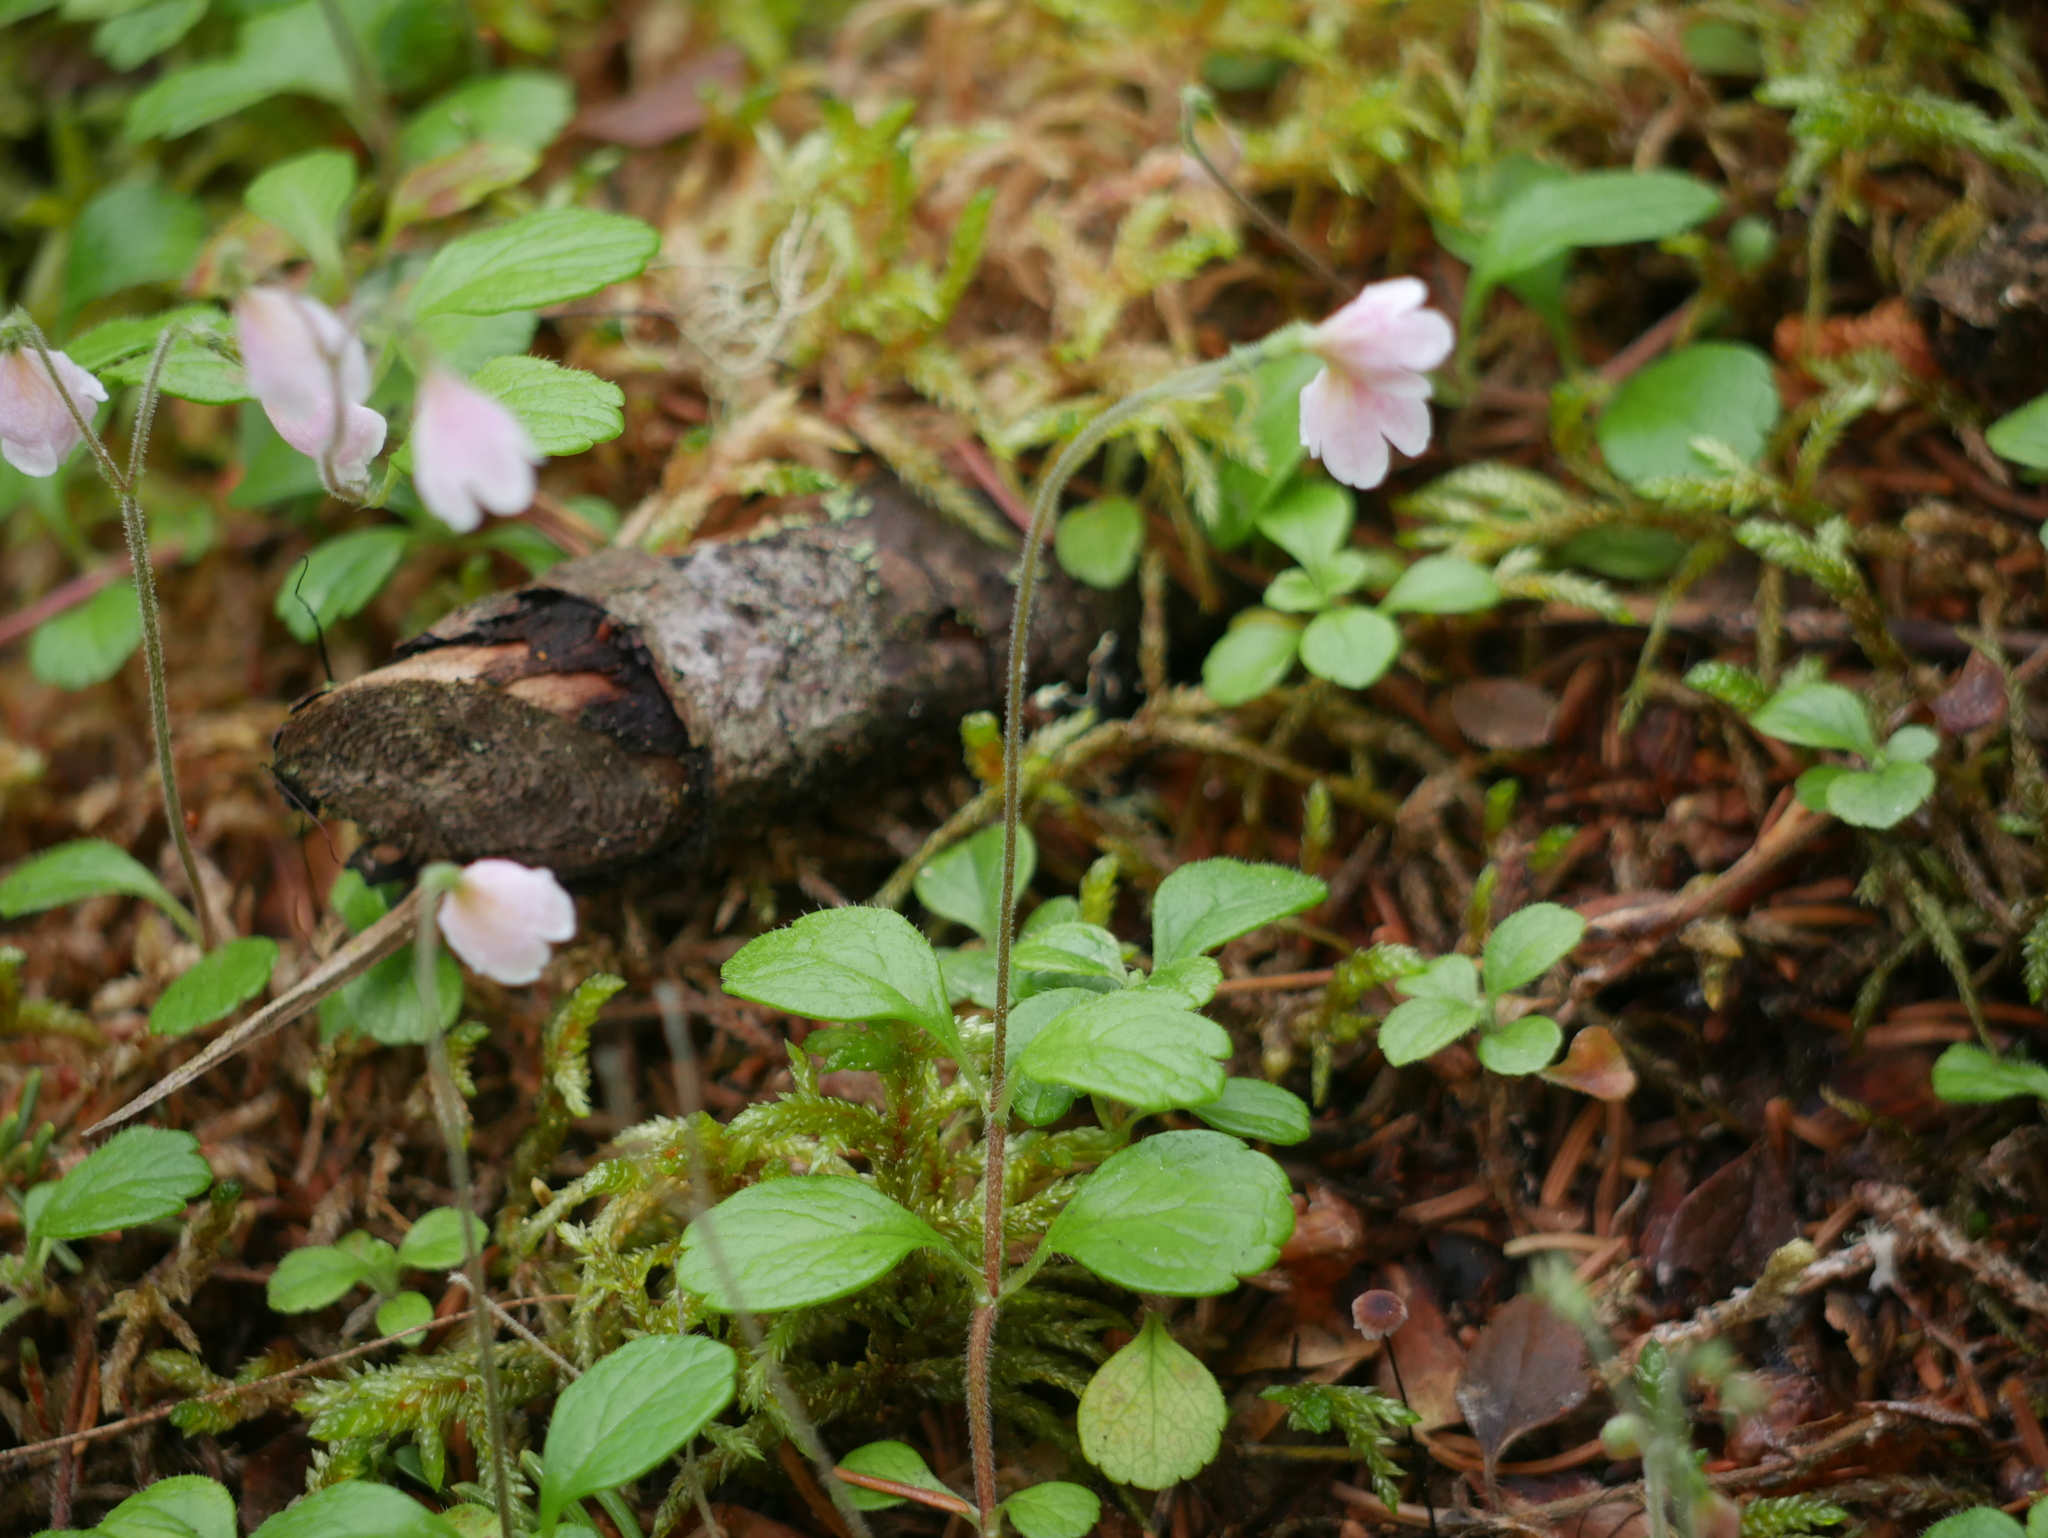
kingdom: Plantae
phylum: Tracheophyta
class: Magnoliopsida
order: Dipsacales
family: Caprifoliaceae
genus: Linnaea
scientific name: Linnaea borealis
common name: Twinflower
